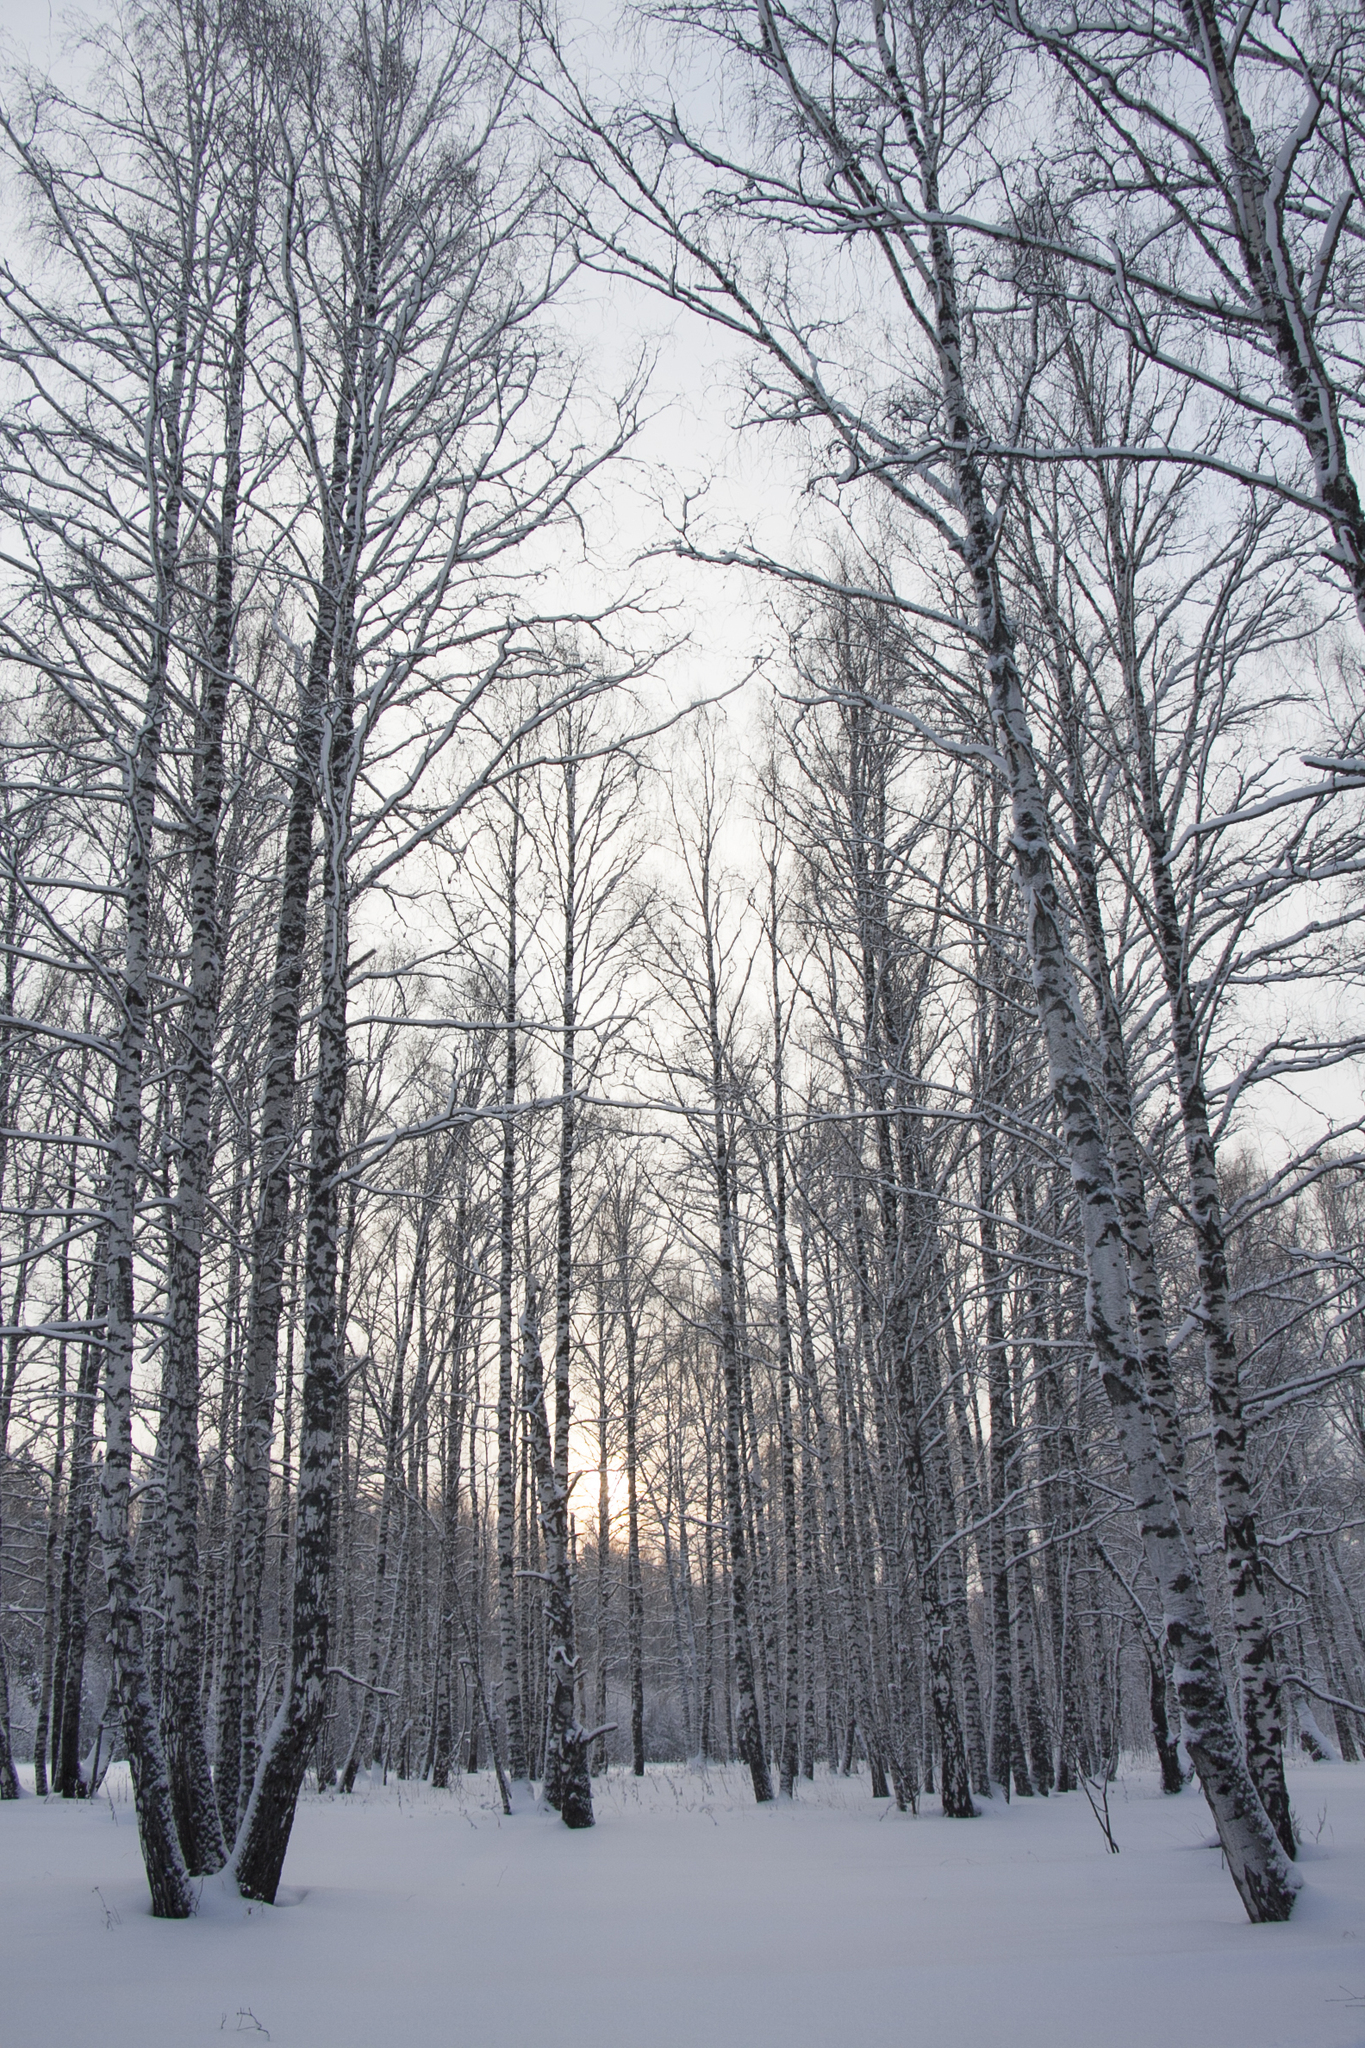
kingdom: Plantae
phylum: Tracheophyta
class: Magnoliopsida
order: Fagales
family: Betulaceae
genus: Betula
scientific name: Betula pendula
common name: Silver birch
